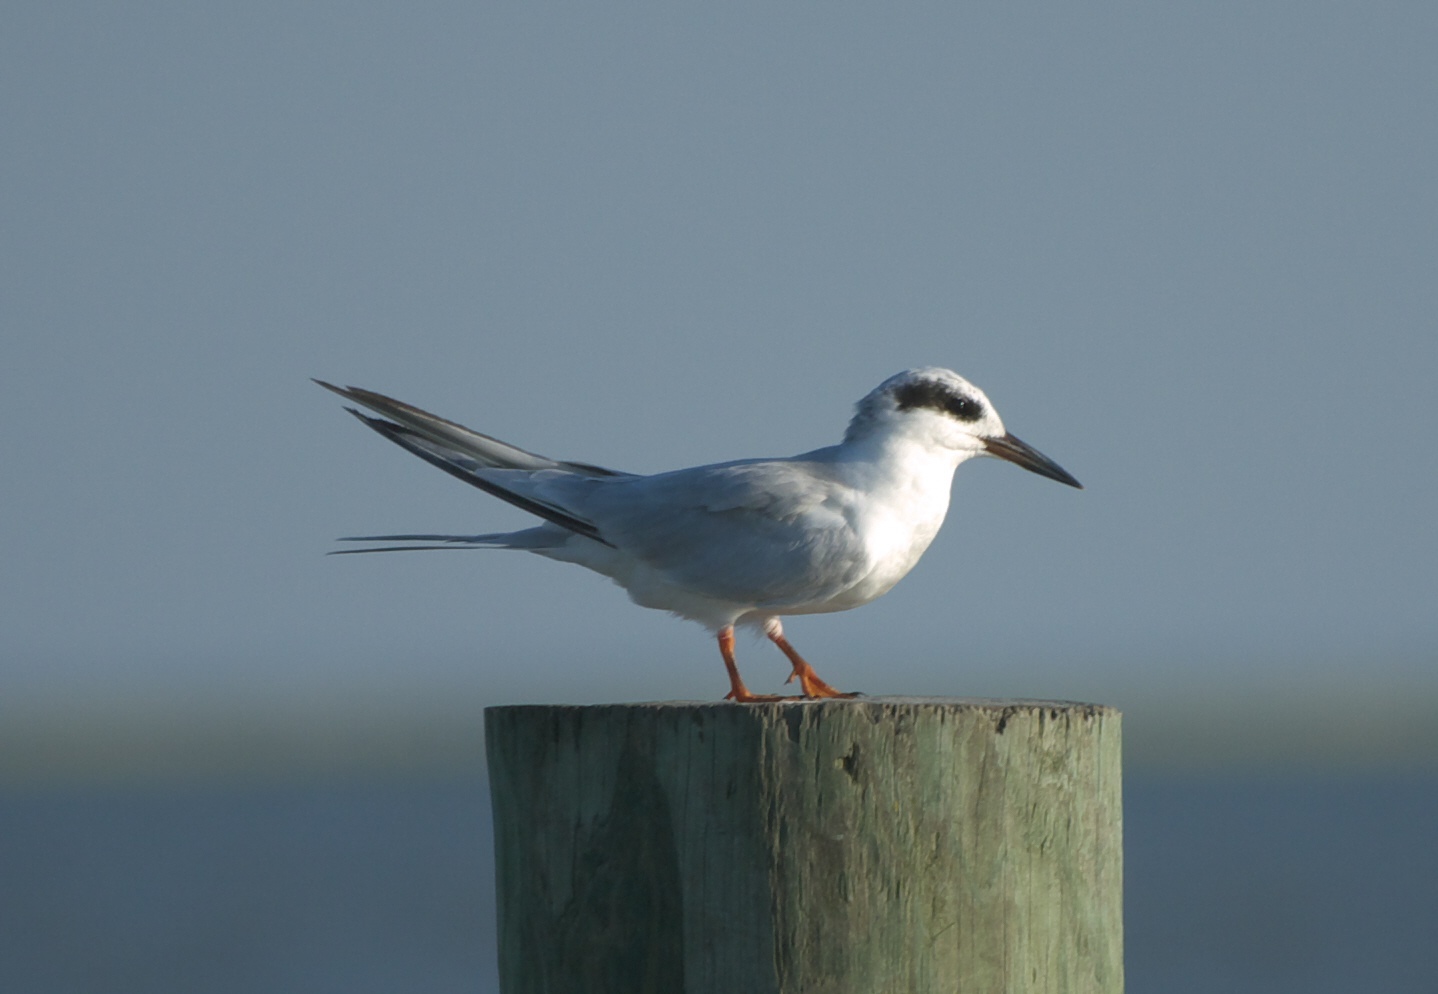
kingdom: Animalia
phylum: Chordata
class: Aves
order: Charadriiformes
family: Laridae
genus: Sterna
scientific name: Sterna forsteri
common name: Forster's tern
